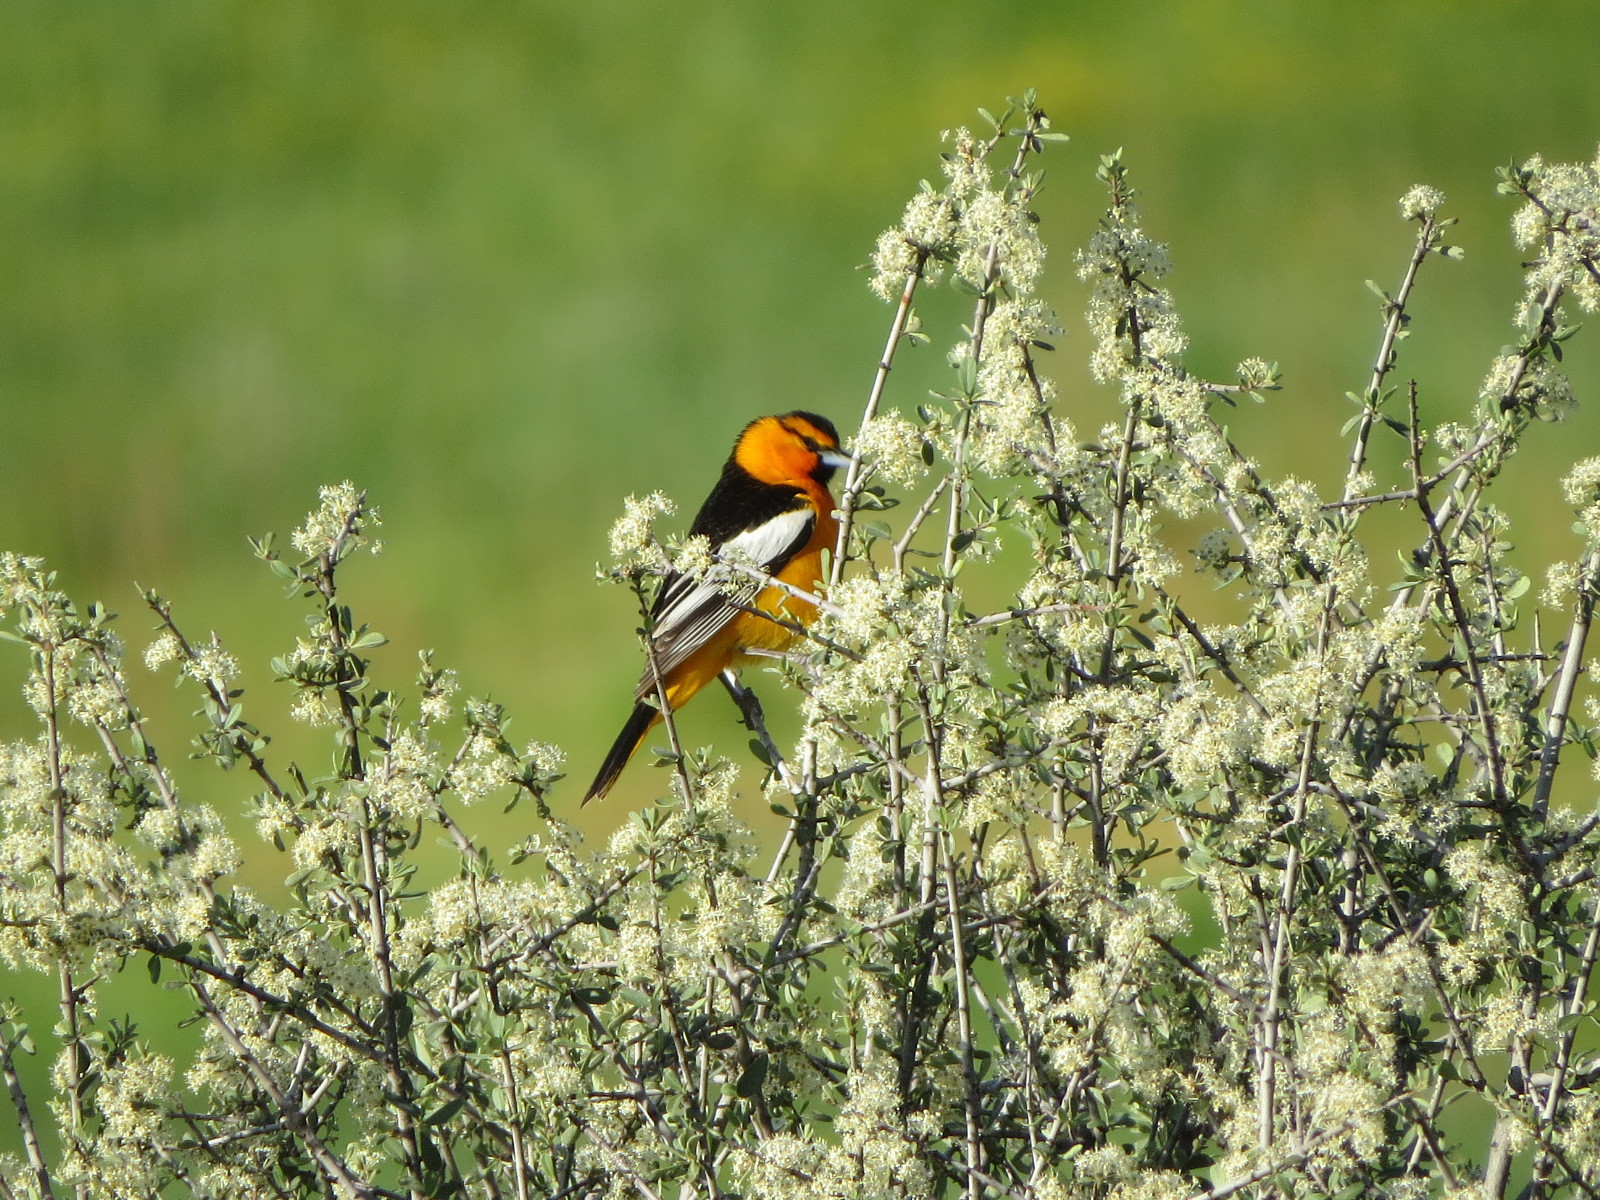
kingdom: Animalia
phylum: Chordata
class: Aves
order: Passeriformes
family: Icteridae
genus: Icterus
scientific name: Icterus bullockii
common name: Bullock's oriole
